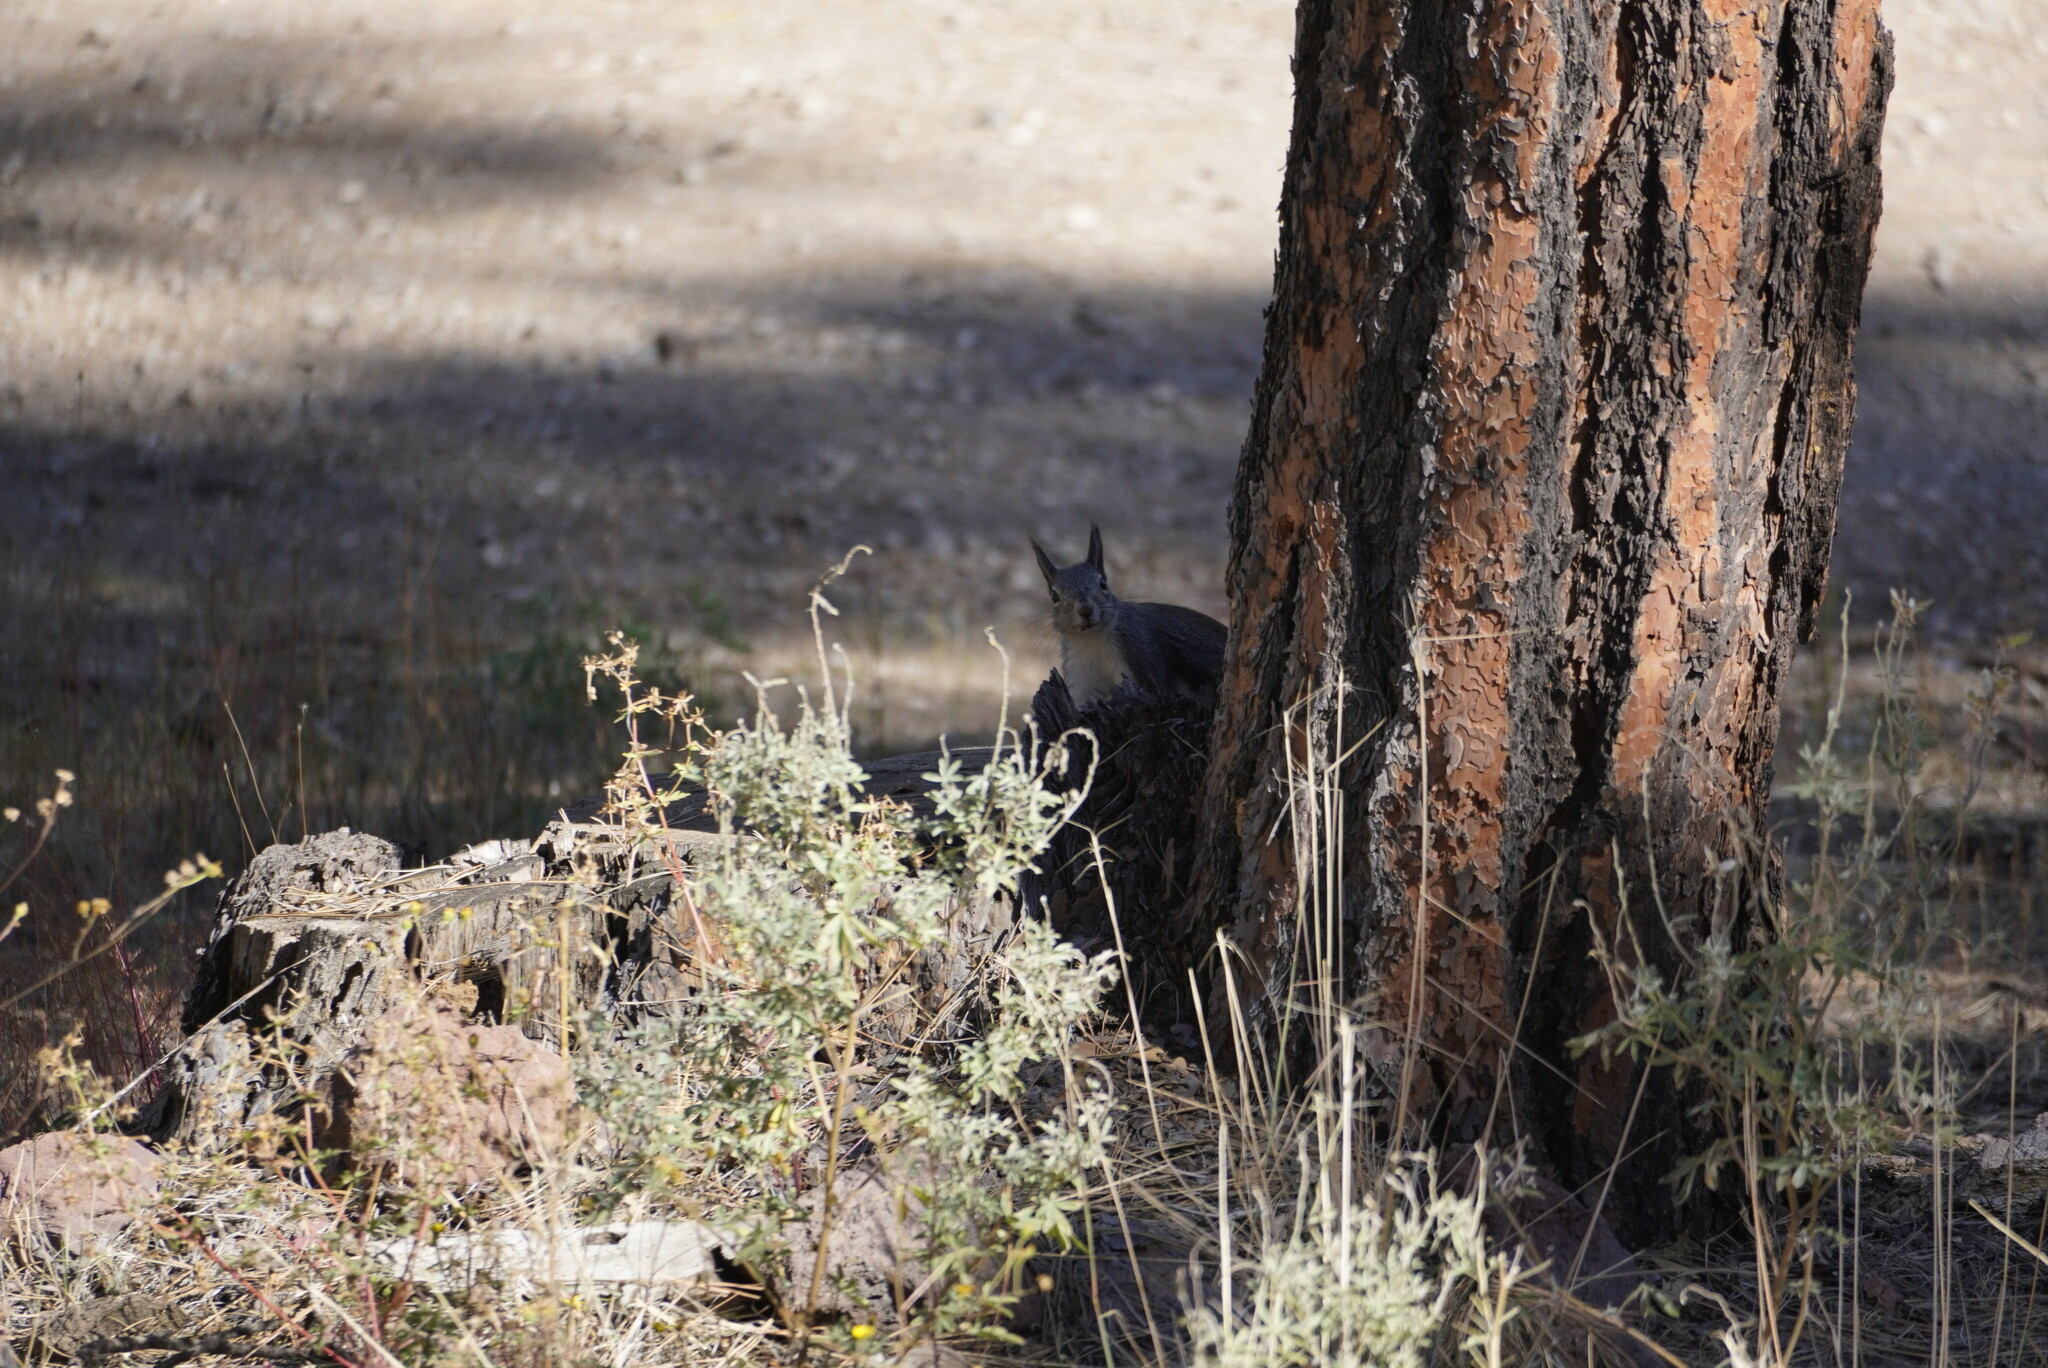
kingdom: Animalia
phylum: Chordata
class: Mammalia
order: Rodentia
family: Sciuridae
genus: Sciurus
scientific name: Sciurus aberti
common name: Abert's squirrel
